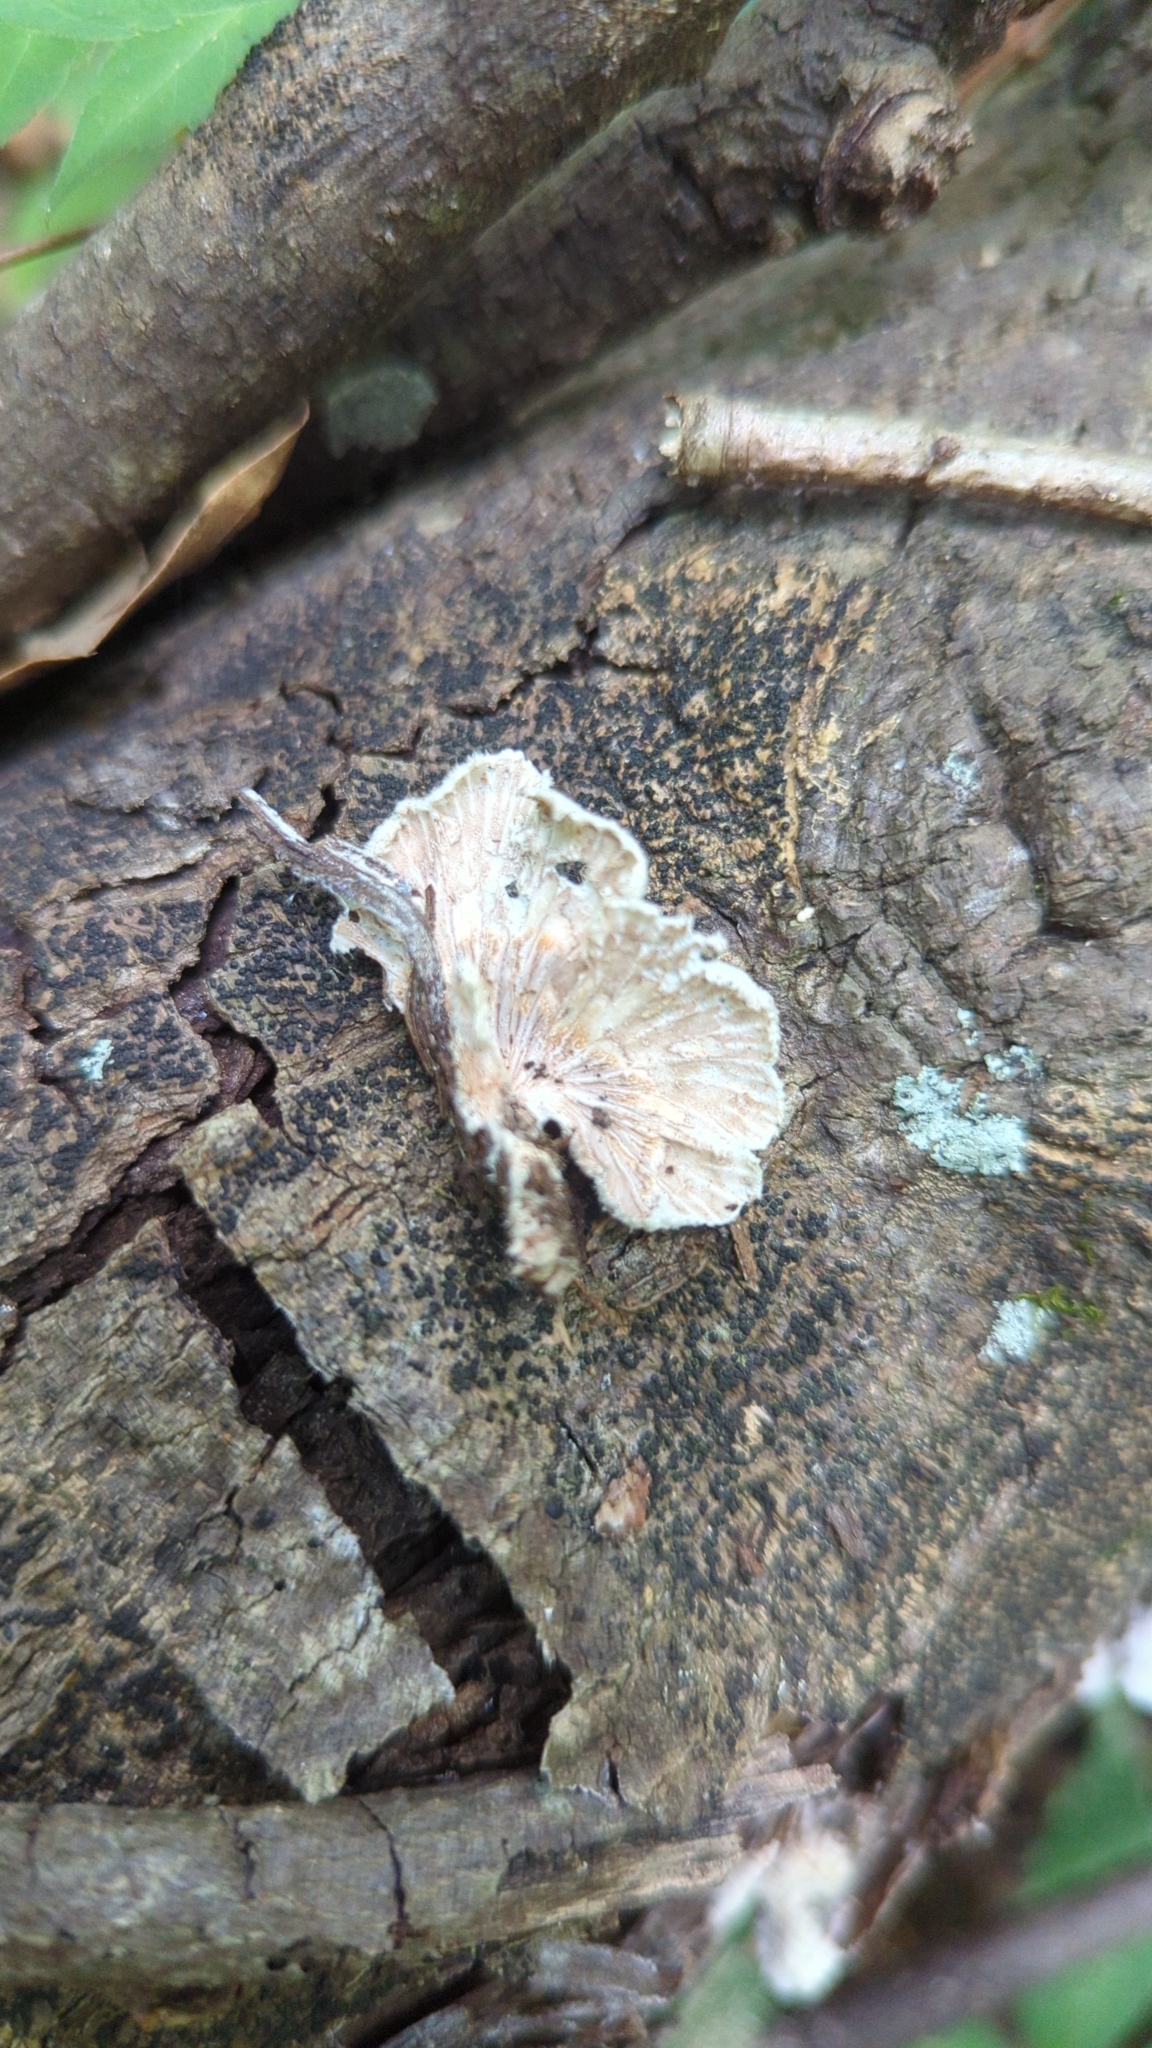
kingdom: Fungi
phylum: Basidiomycota
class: Agaricomycetes
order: Agaricales
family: Schizophyllaceae
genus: Schizophyllum
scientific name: Schizophyllum commune
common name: Common porecrust
